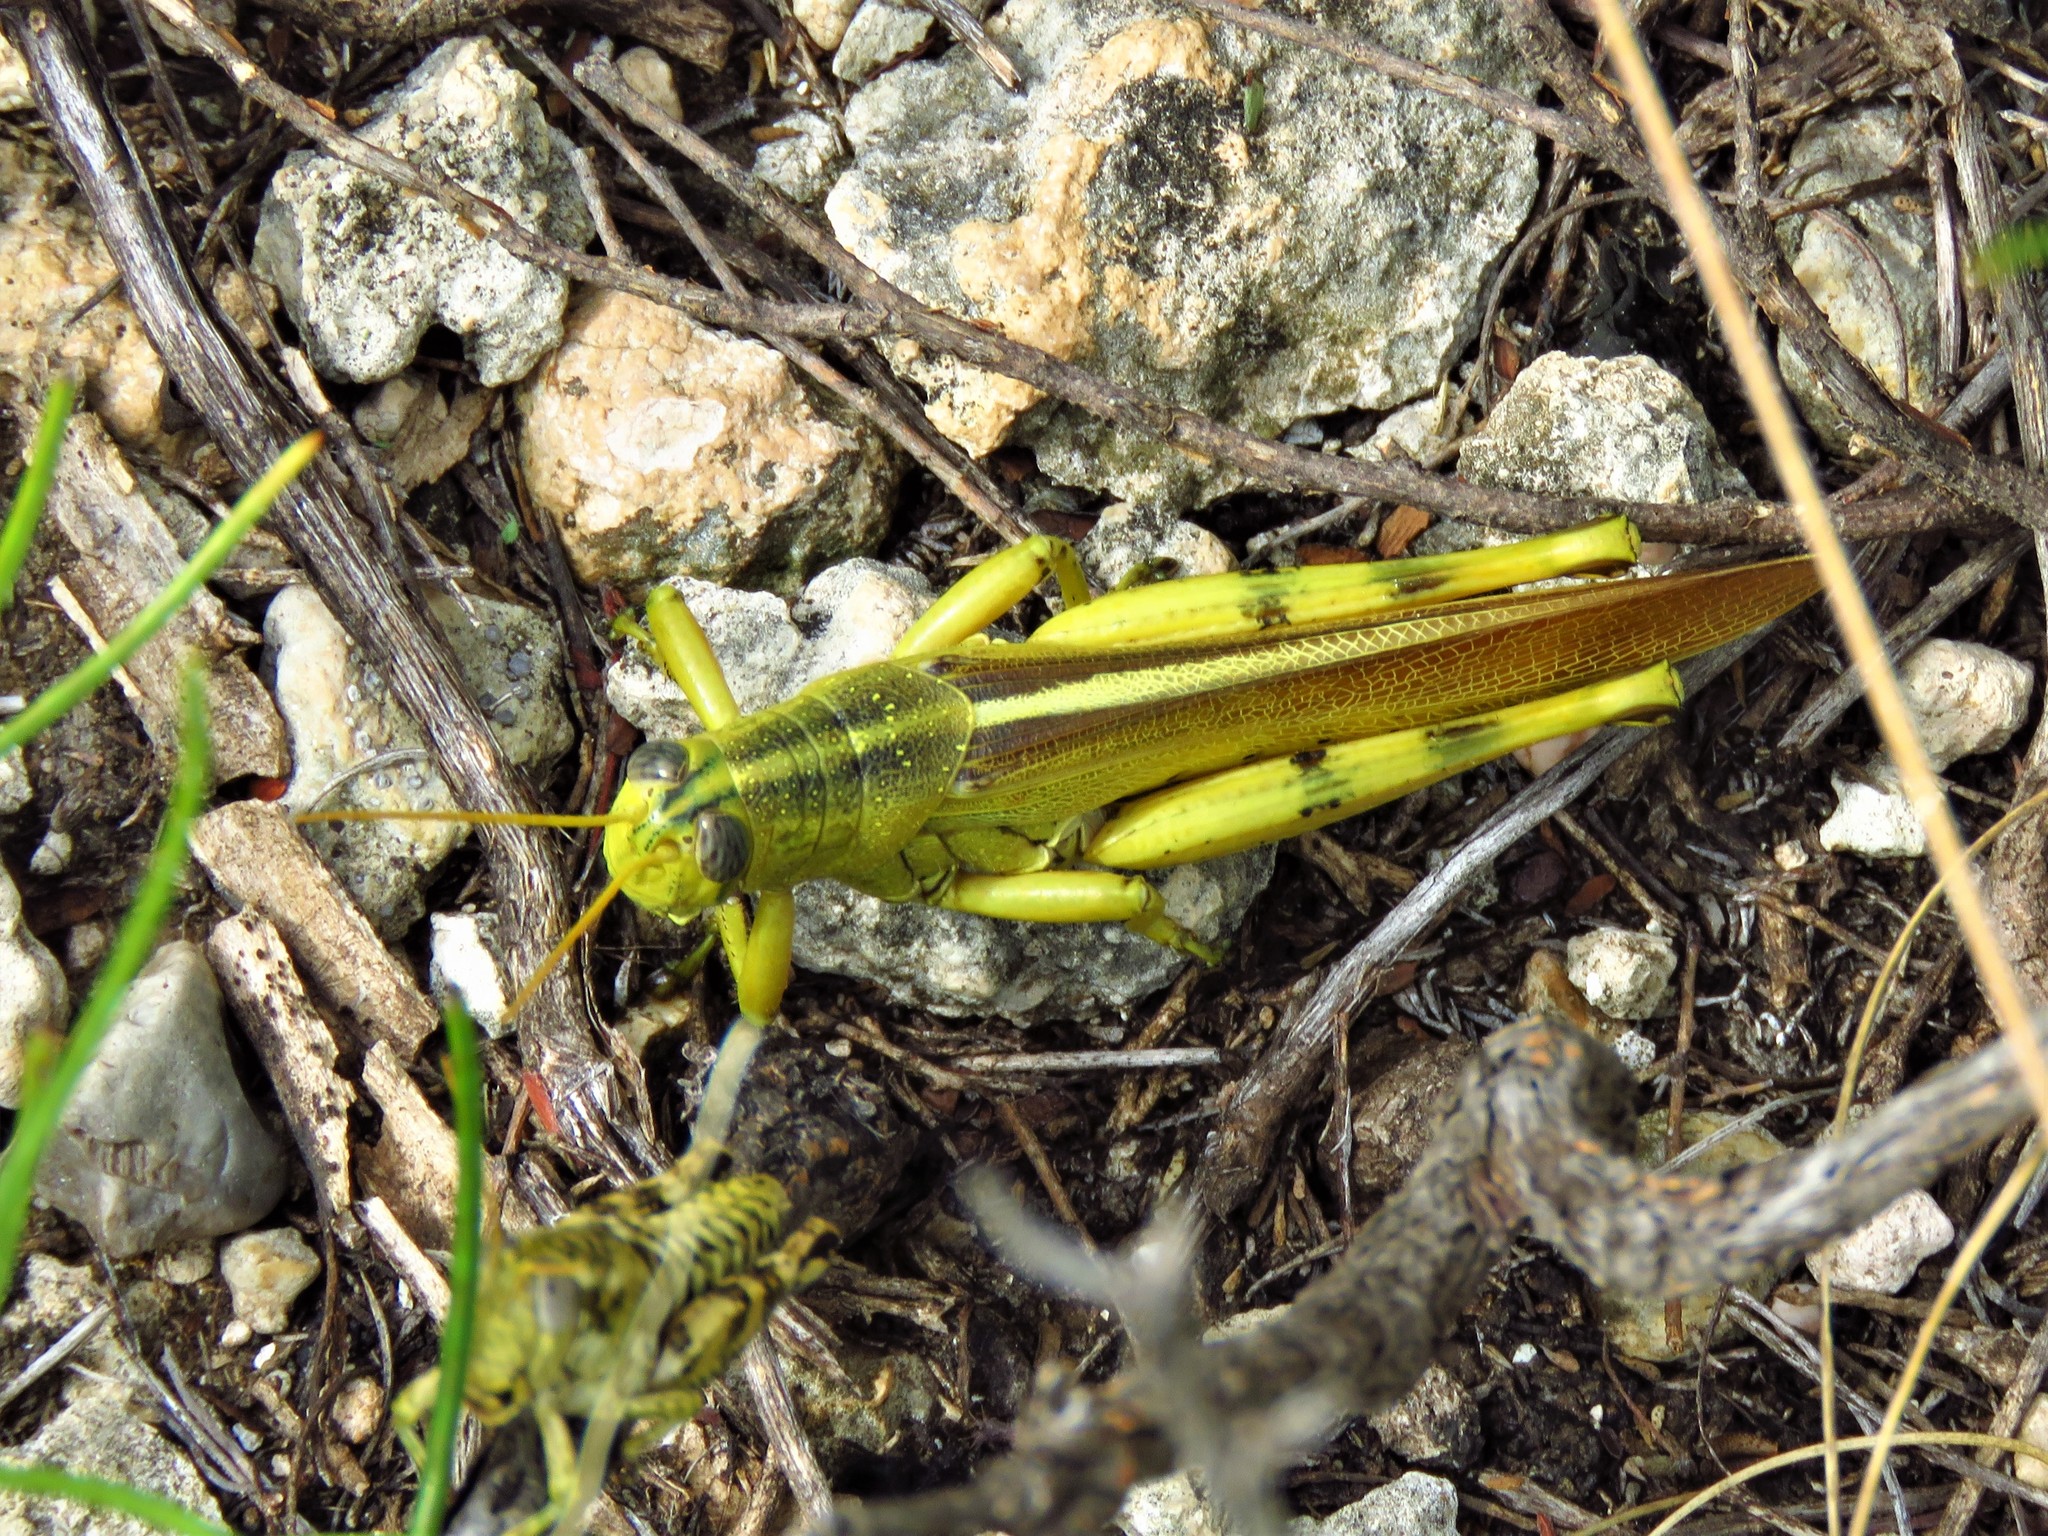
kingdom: Animalia
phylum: Arthropoda
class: Insecta
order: Orthoptera
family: Acrididae
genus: Schistocerca
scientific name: Schistocerca lineata
